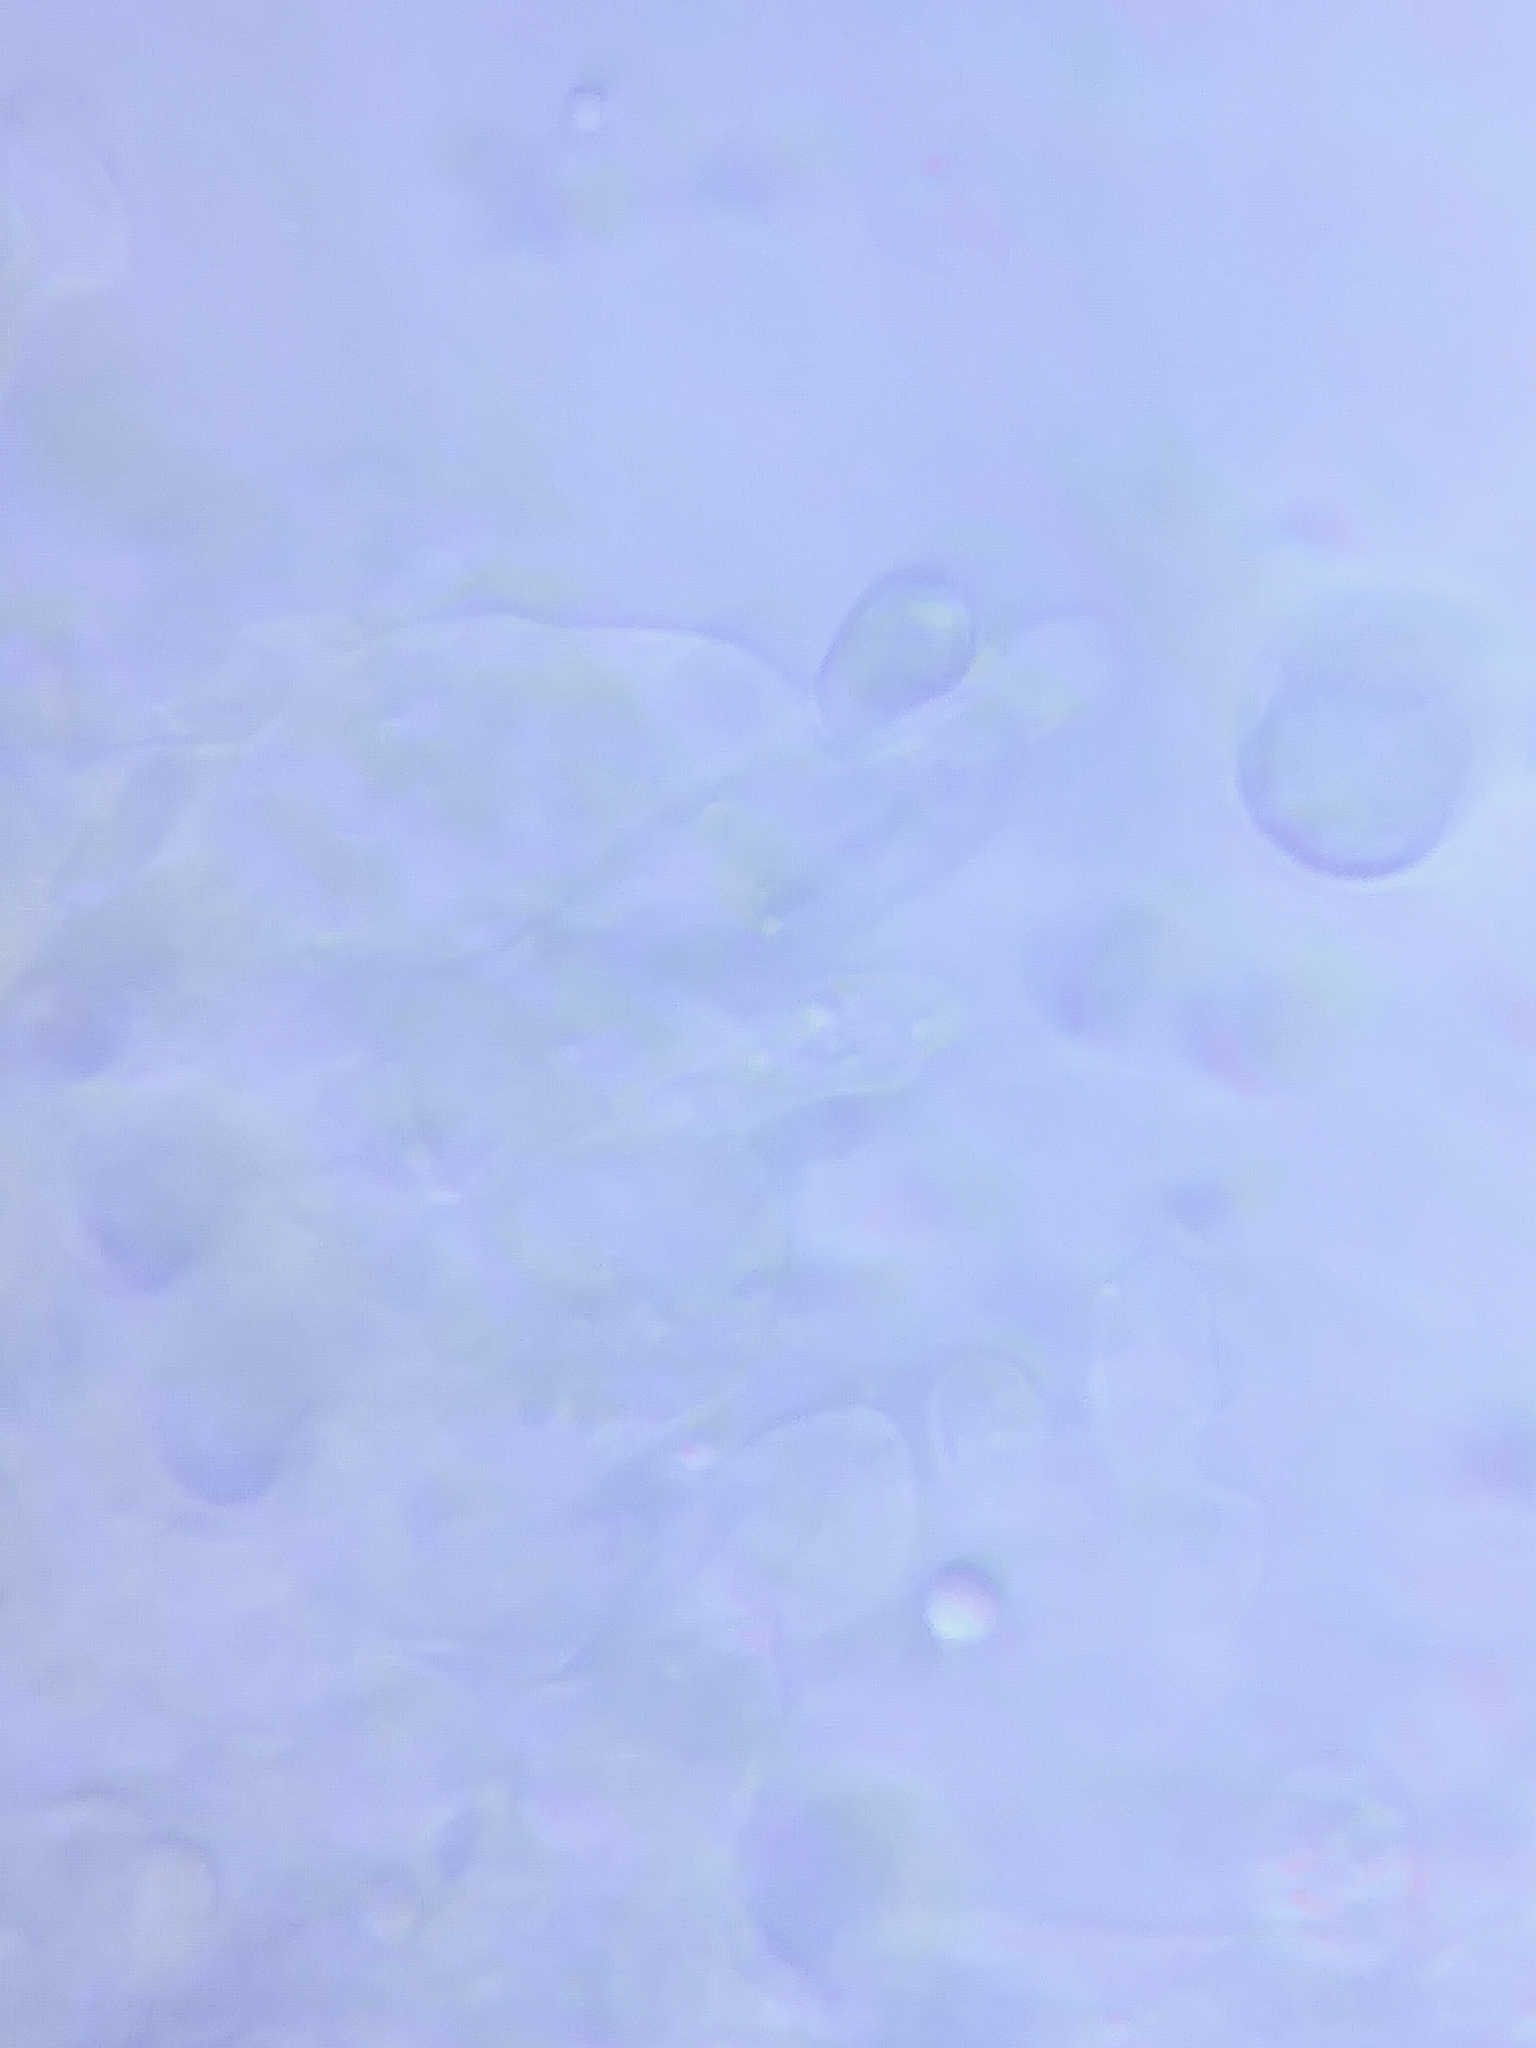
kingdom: Fungi
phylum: Basidiomycota
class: Agaricomycetes
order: Agaricales
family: Mycenaceae
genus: Mycena
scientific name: Mycena inclinata
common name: Clustered bonnet
